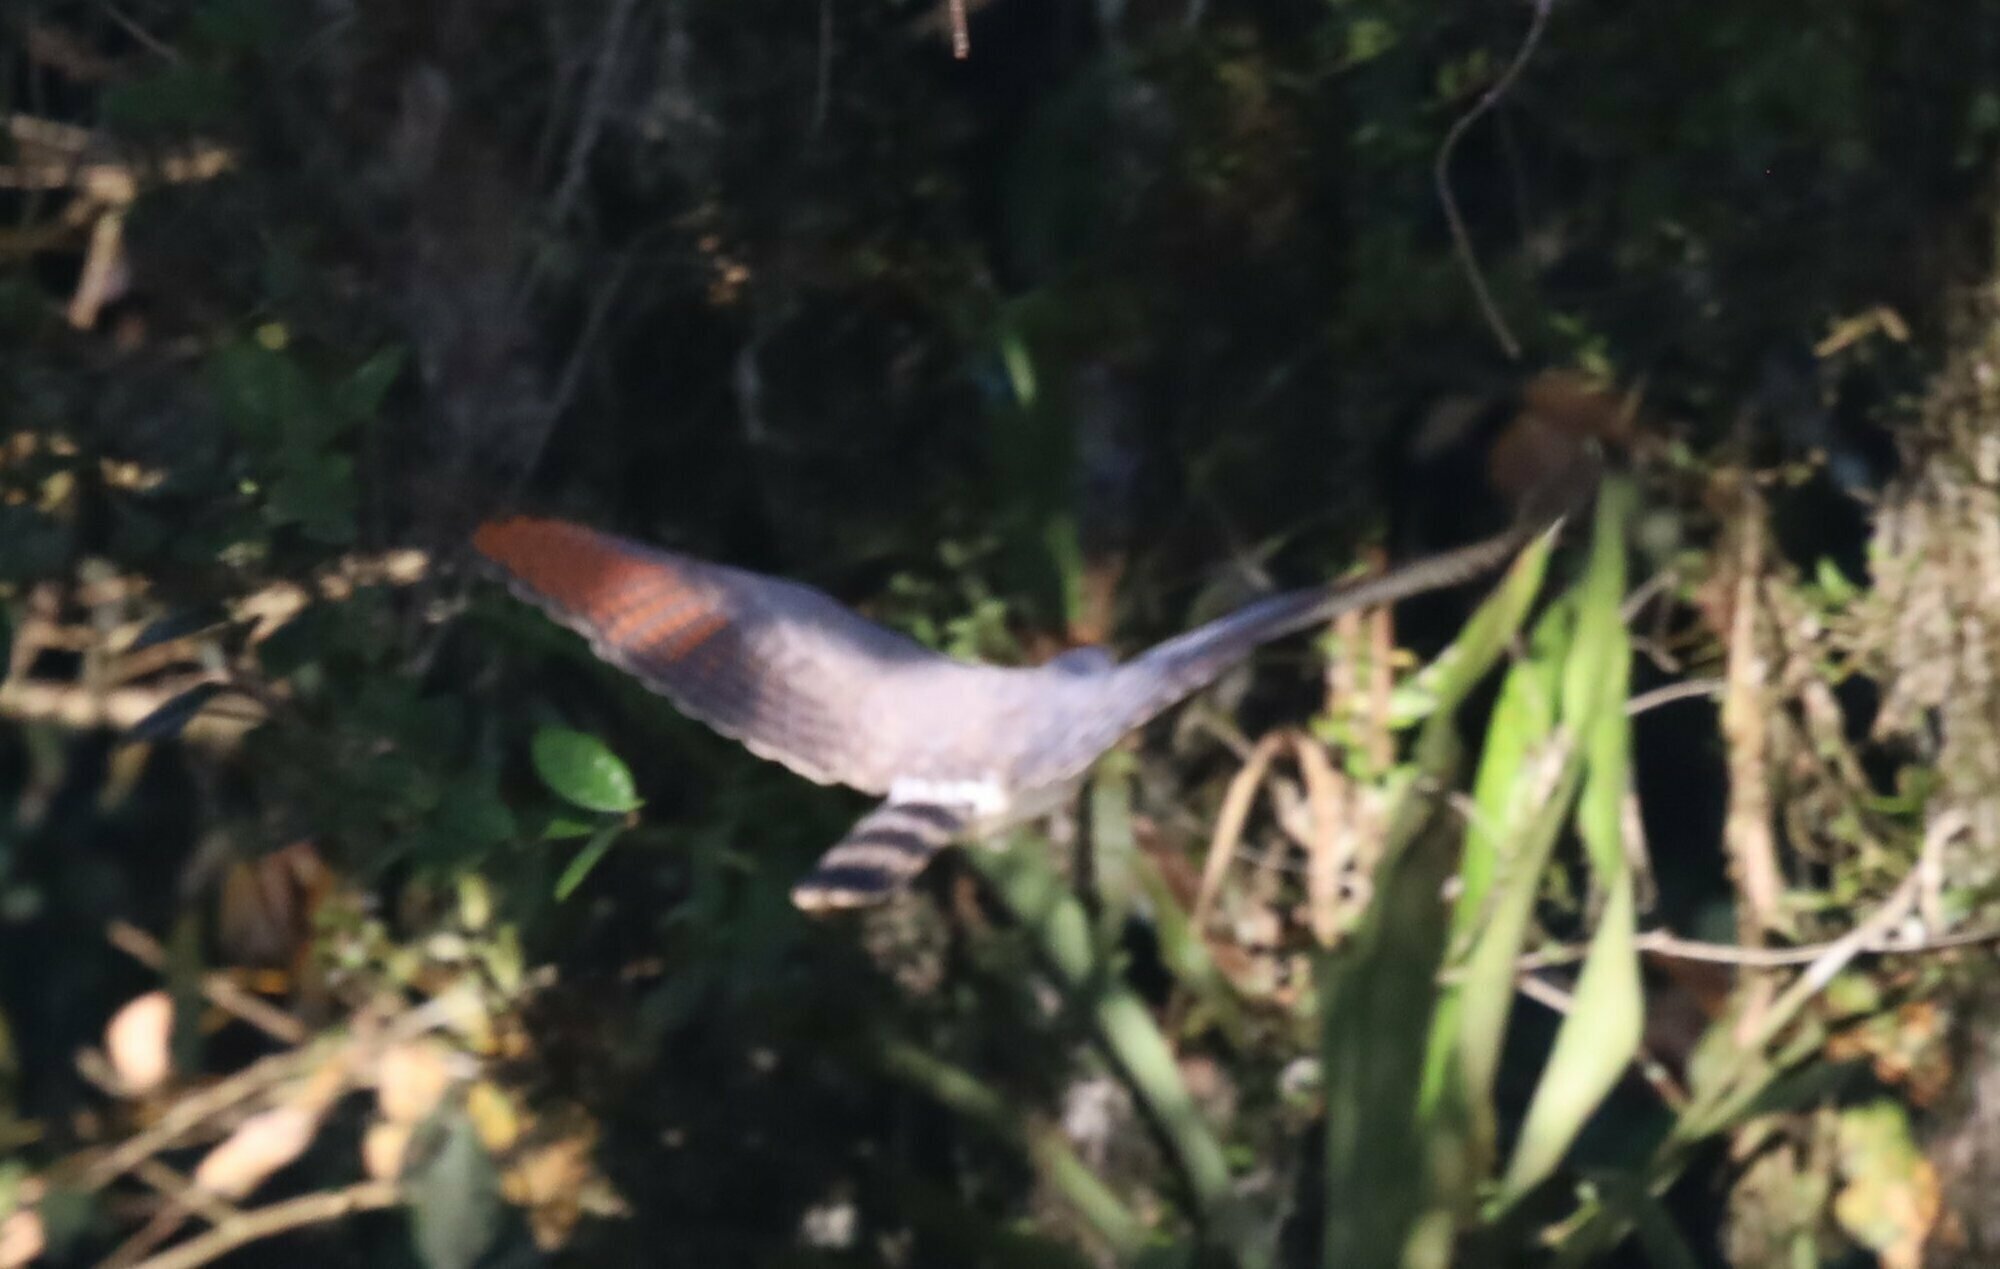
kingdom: Animalia
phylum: Chordata
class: Aves
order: Accipitriformes
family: Accipitridae
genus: Rupornis
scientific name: Rupornis magnirostris
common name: Roadside hawk
